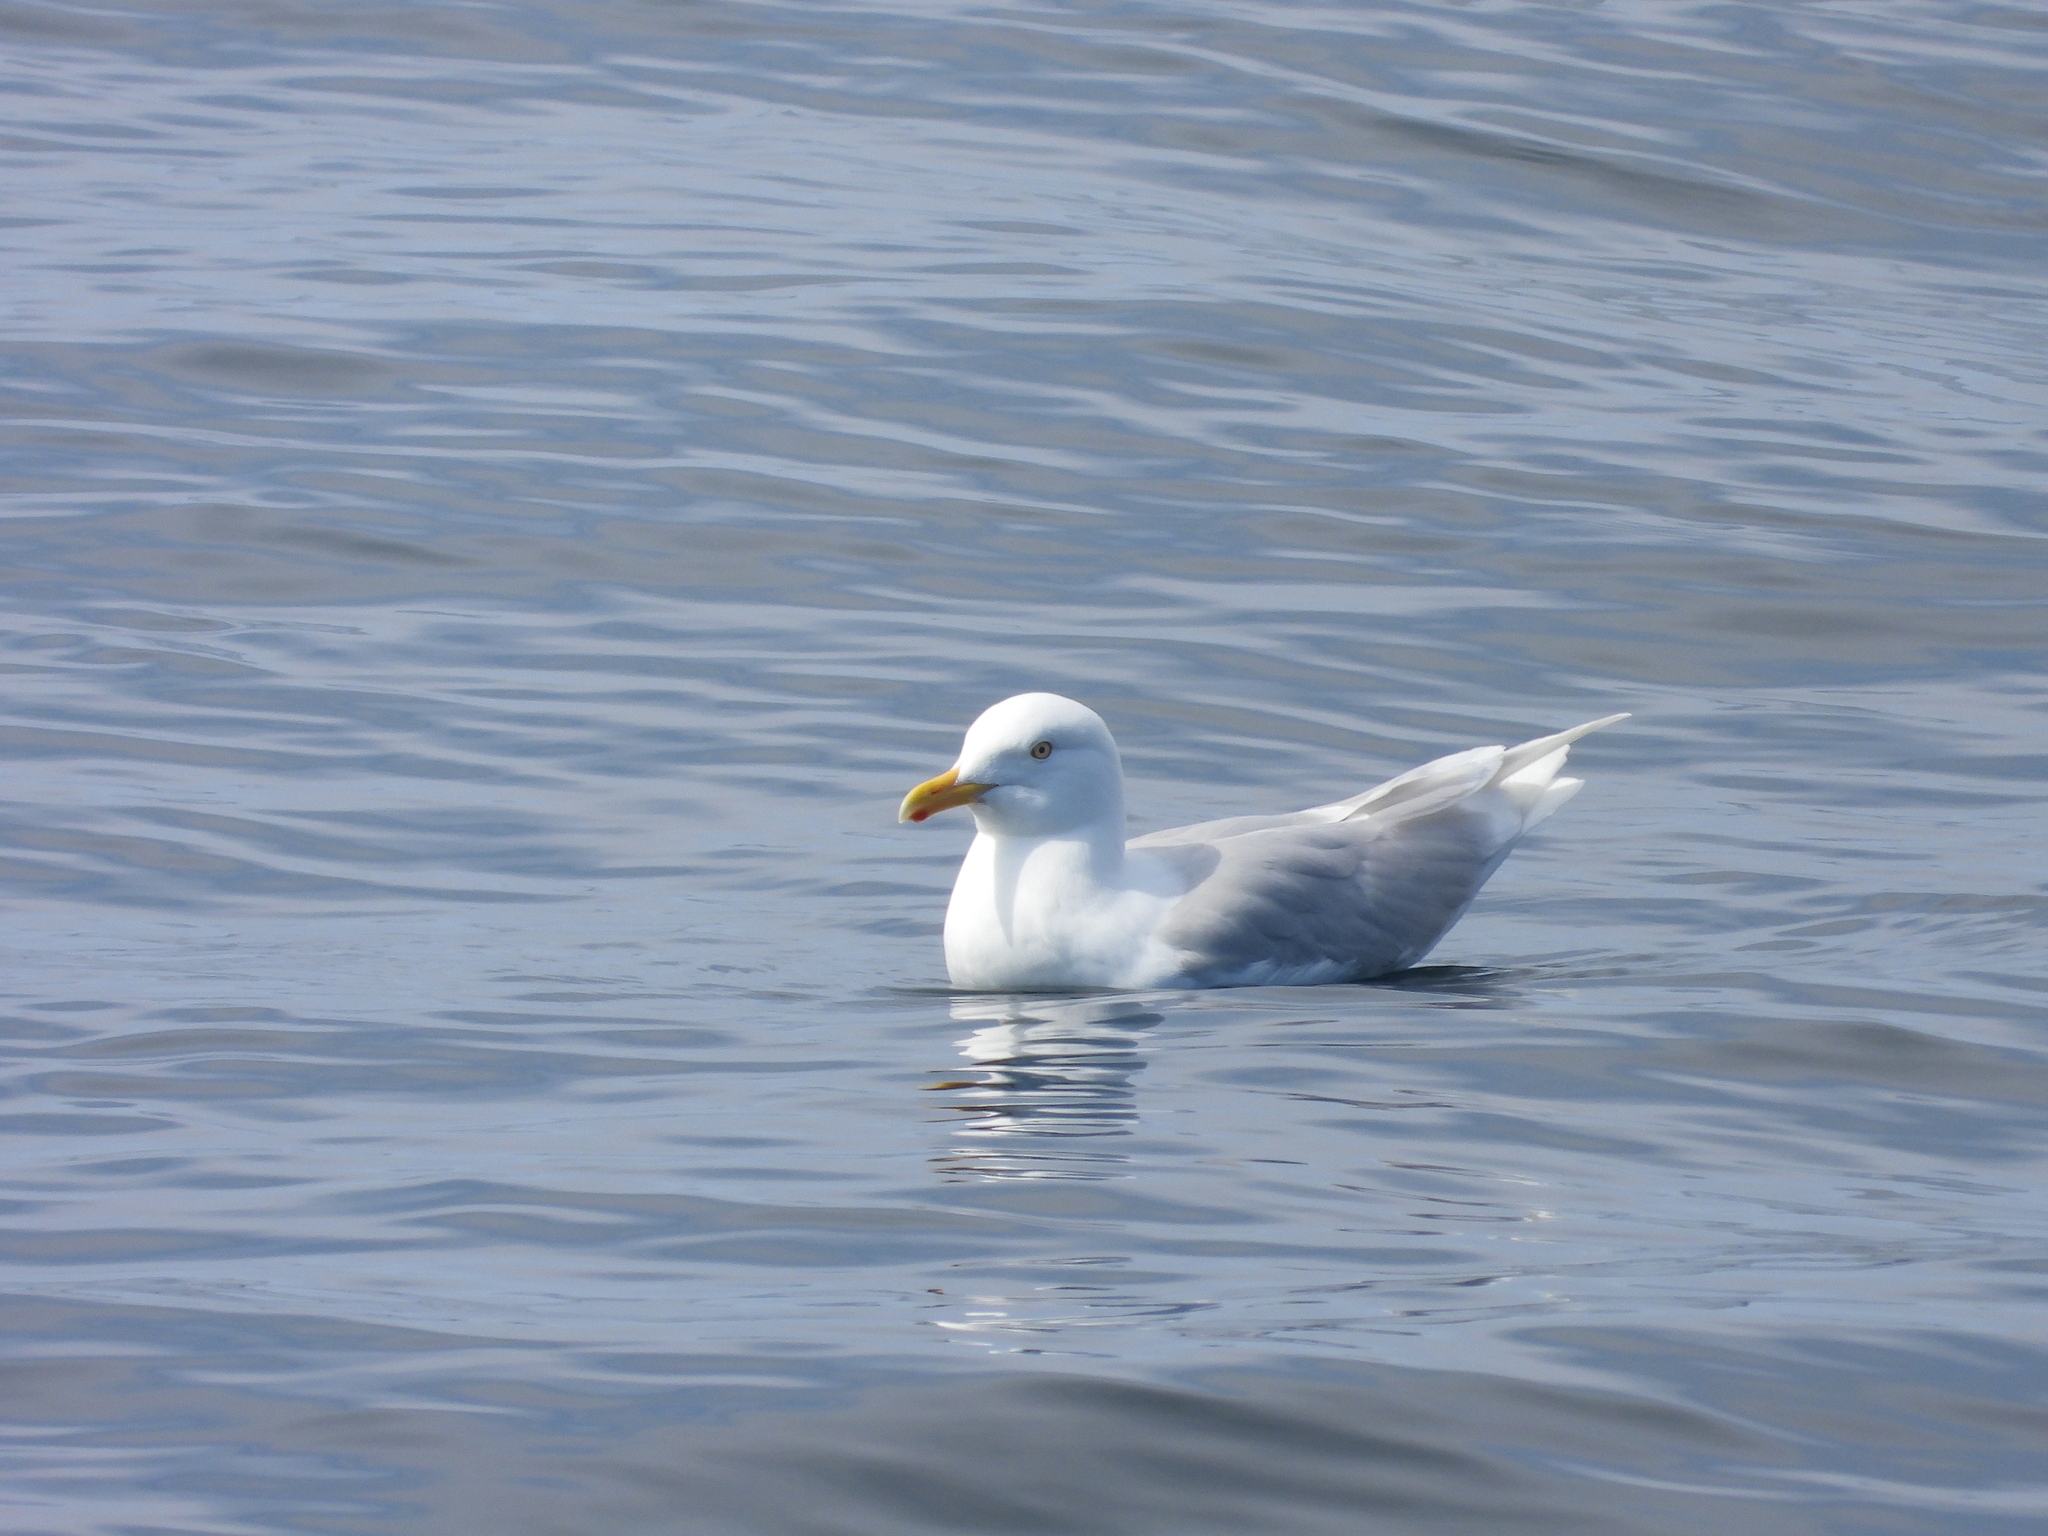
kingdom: Animalia
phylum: Chordata
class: Aves
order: Charadriiformes
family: Laridae
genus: Larus
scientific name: Larus hyperboreus
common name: Glaucous gull
